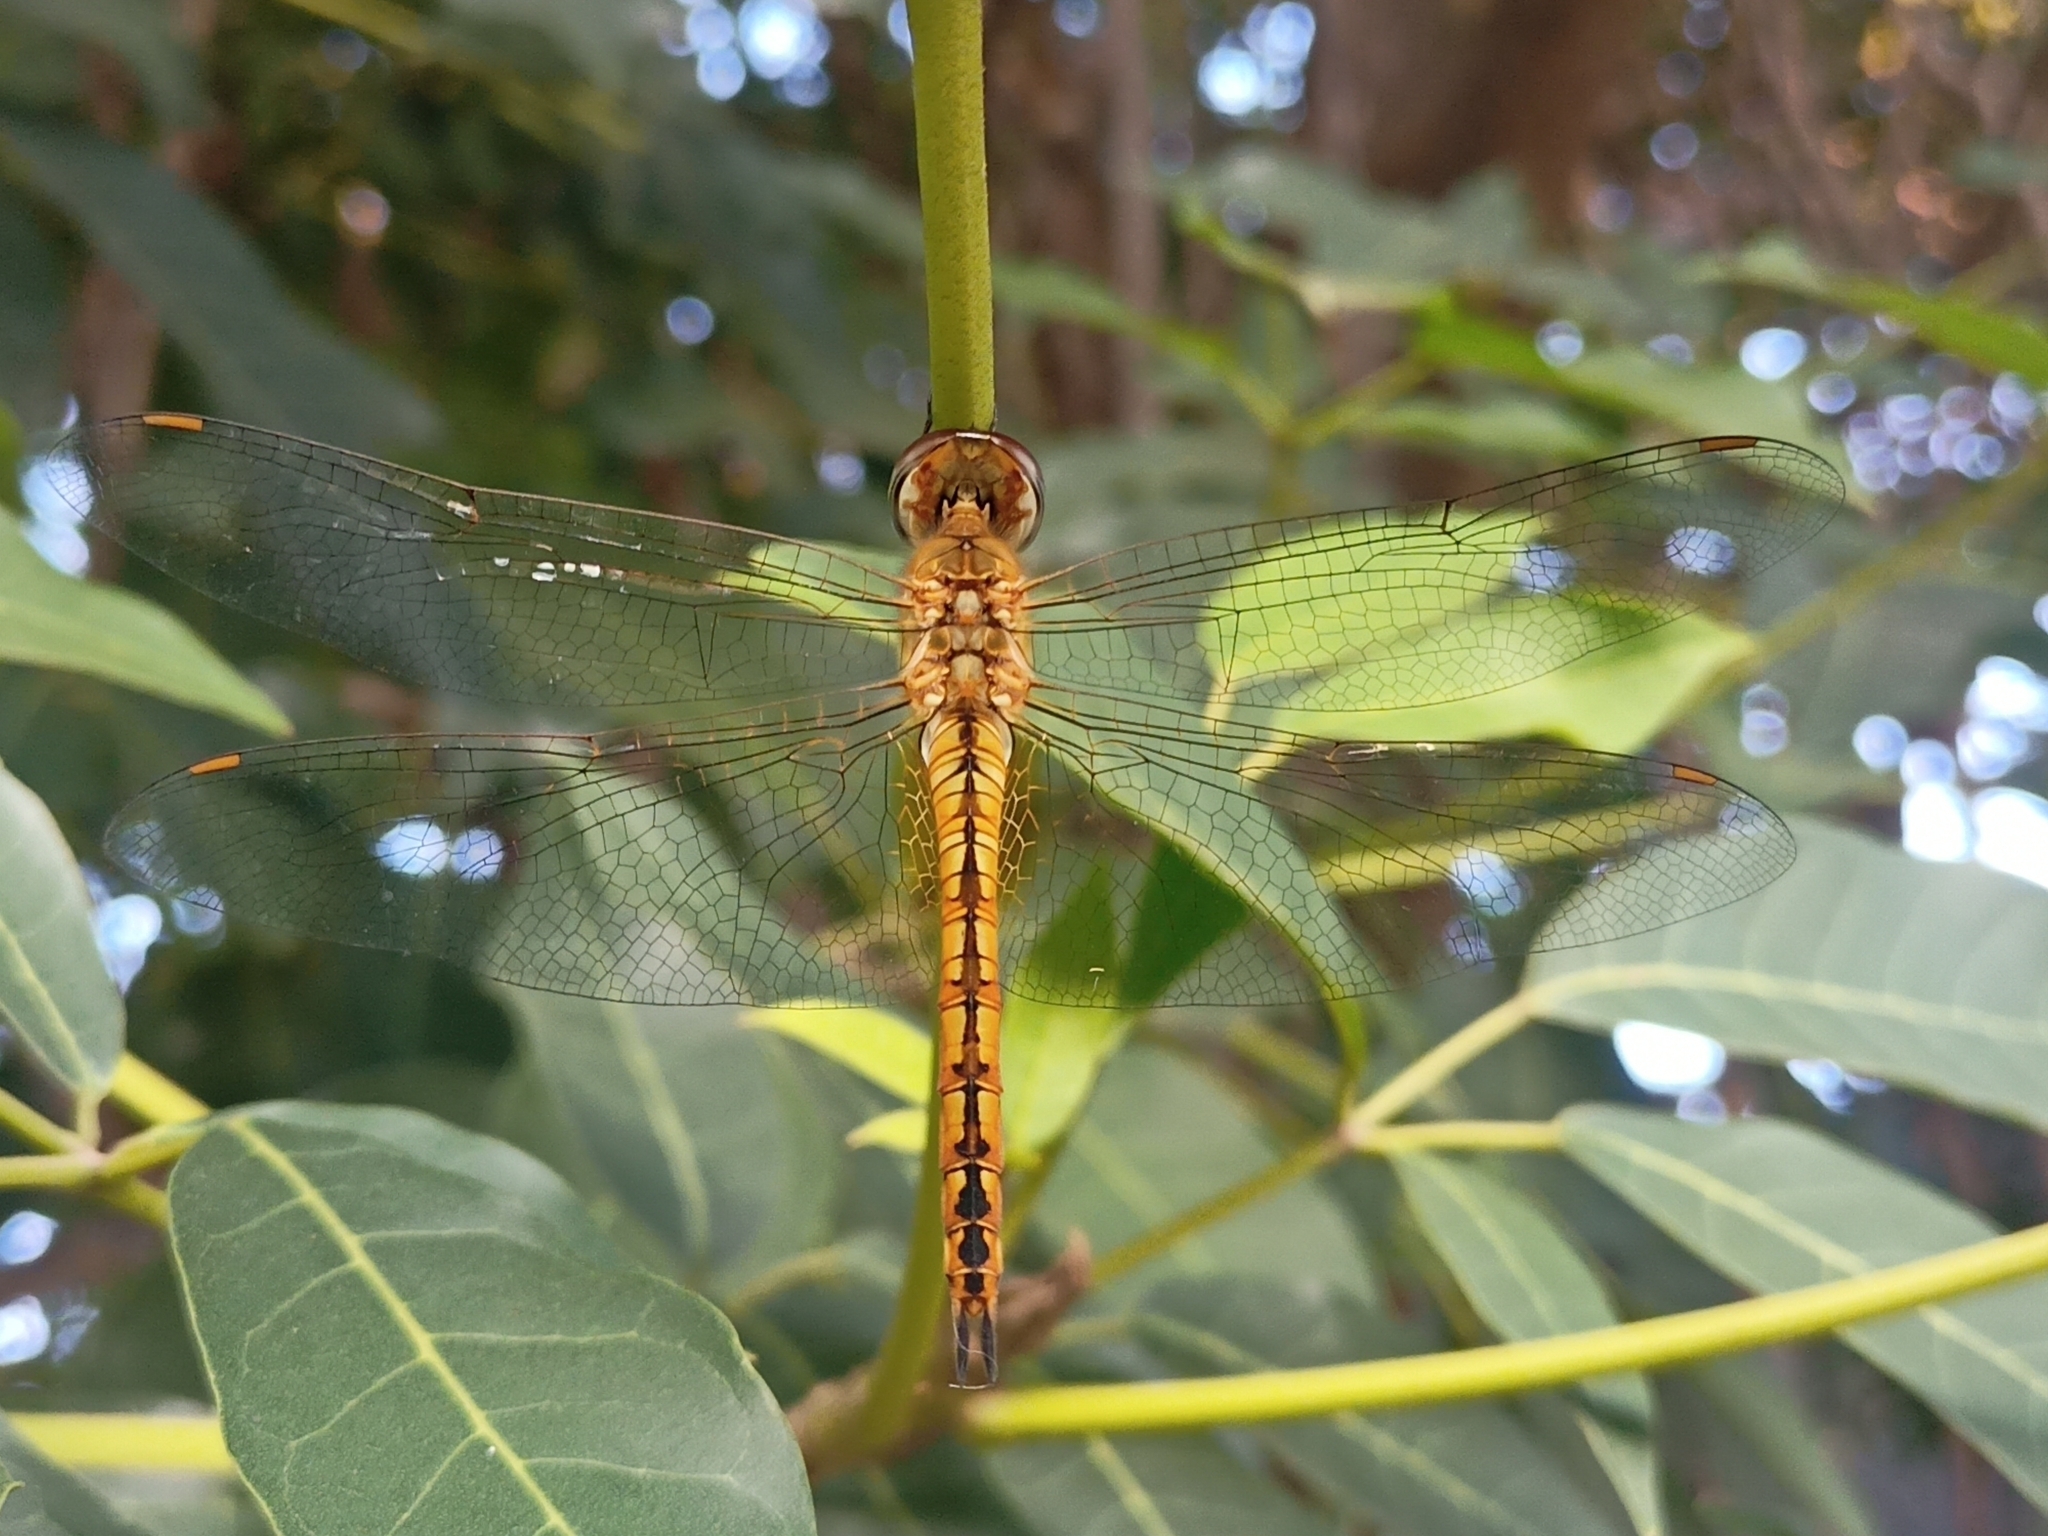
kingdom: Animalia
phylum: Arthropoda
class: Insecta
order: Odonata
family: Libellulidae
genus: Pantala
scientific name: Pantala flavescens
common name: Wandering glider
